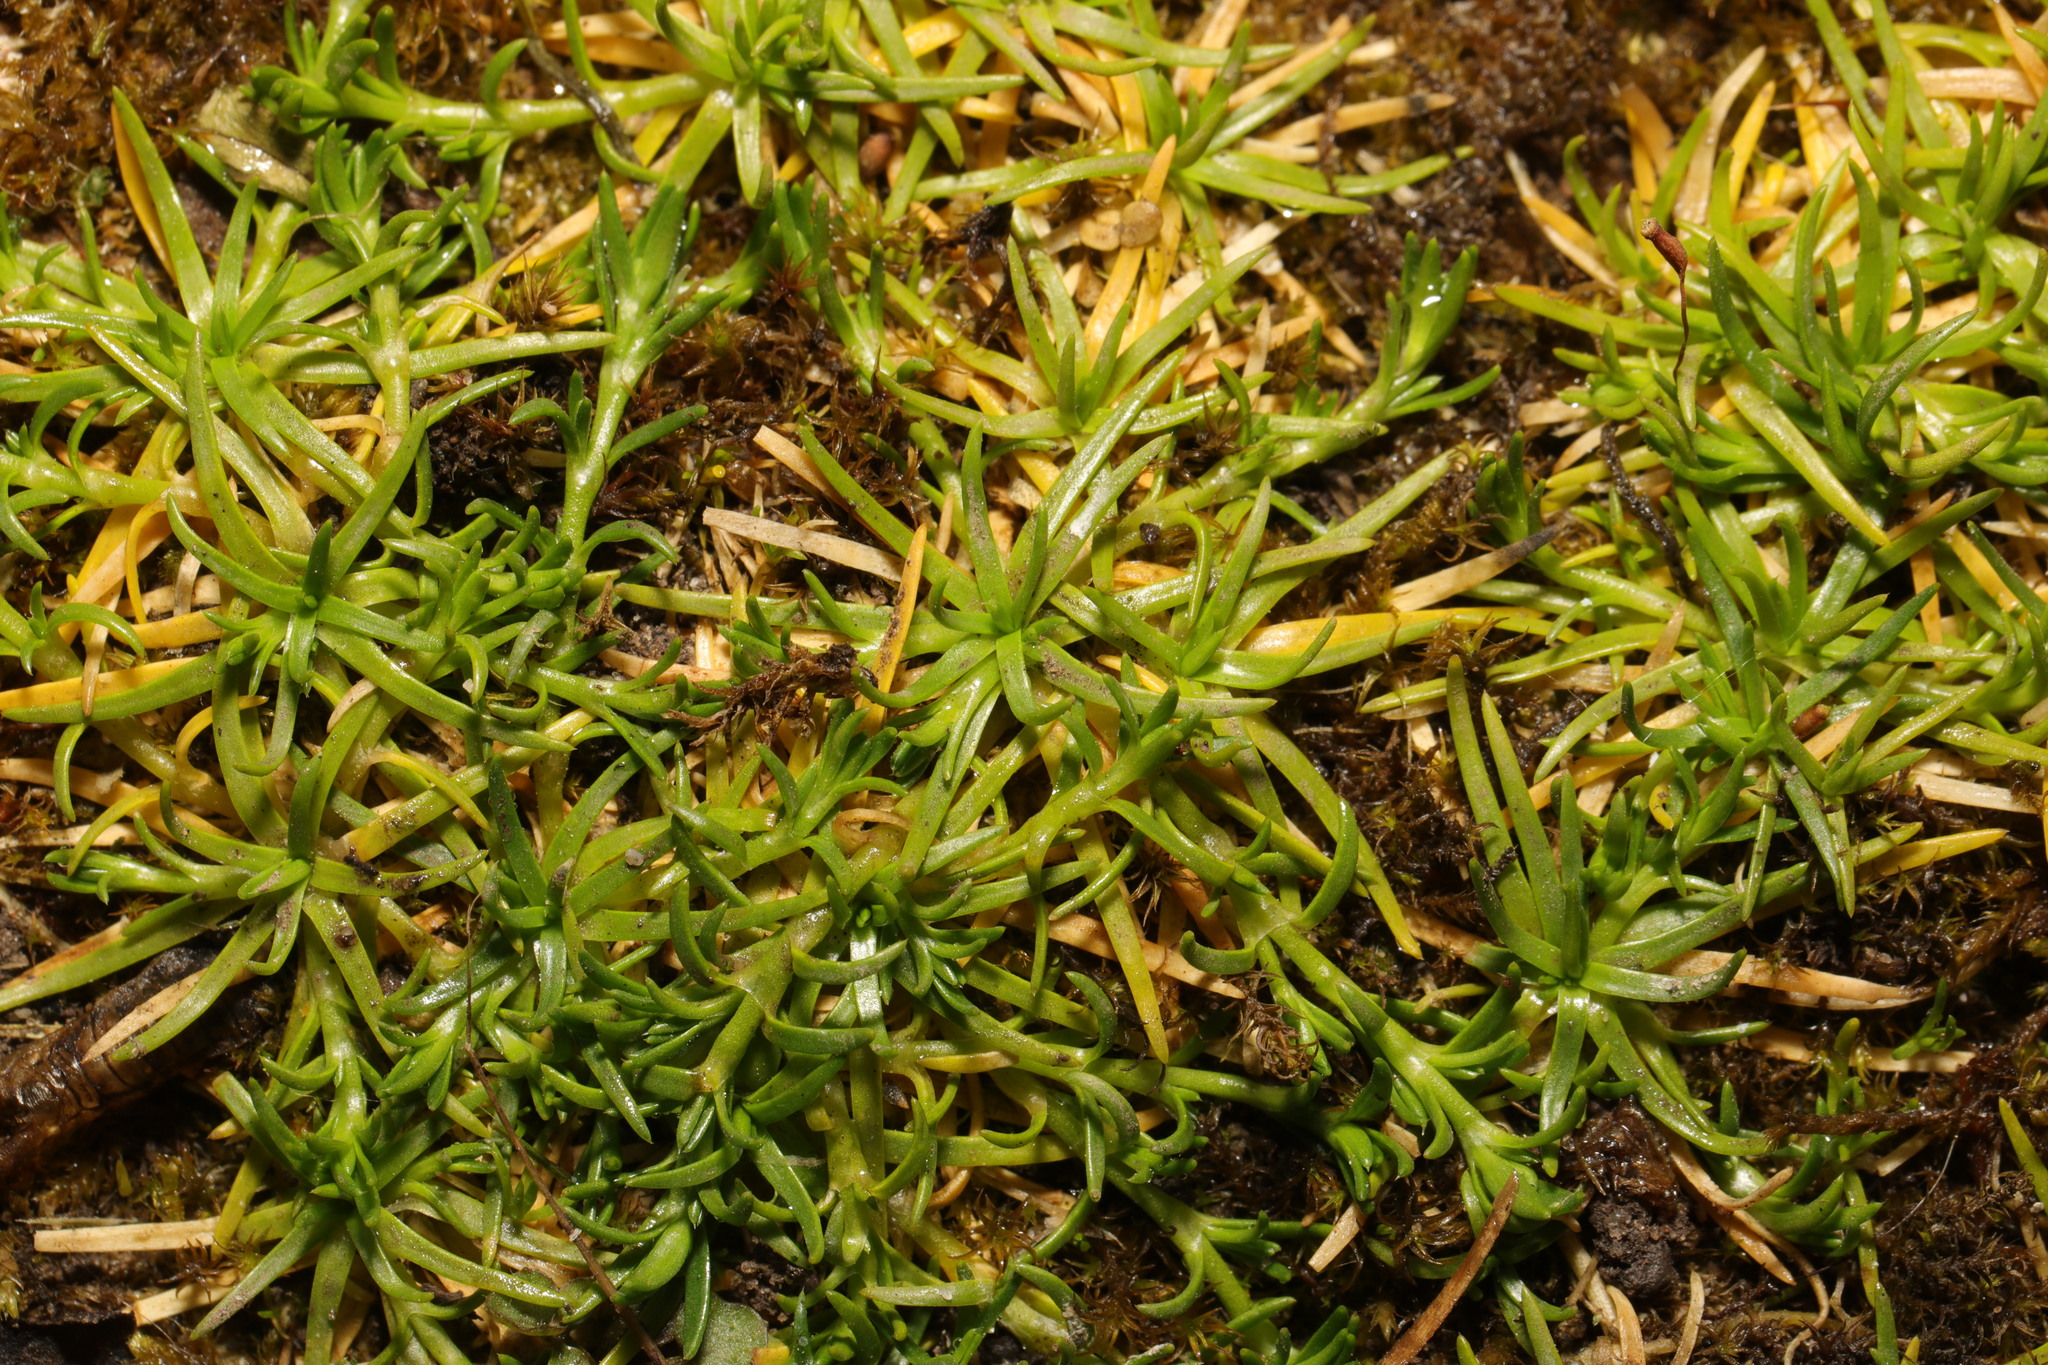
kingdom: Plantae
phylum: Tracheophyta
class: Magnoliopsida
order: Caryophyllales
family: Caryophyllaceae
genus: Sagina
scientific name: Sagina procumbens
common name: Procumbent pearlwort
